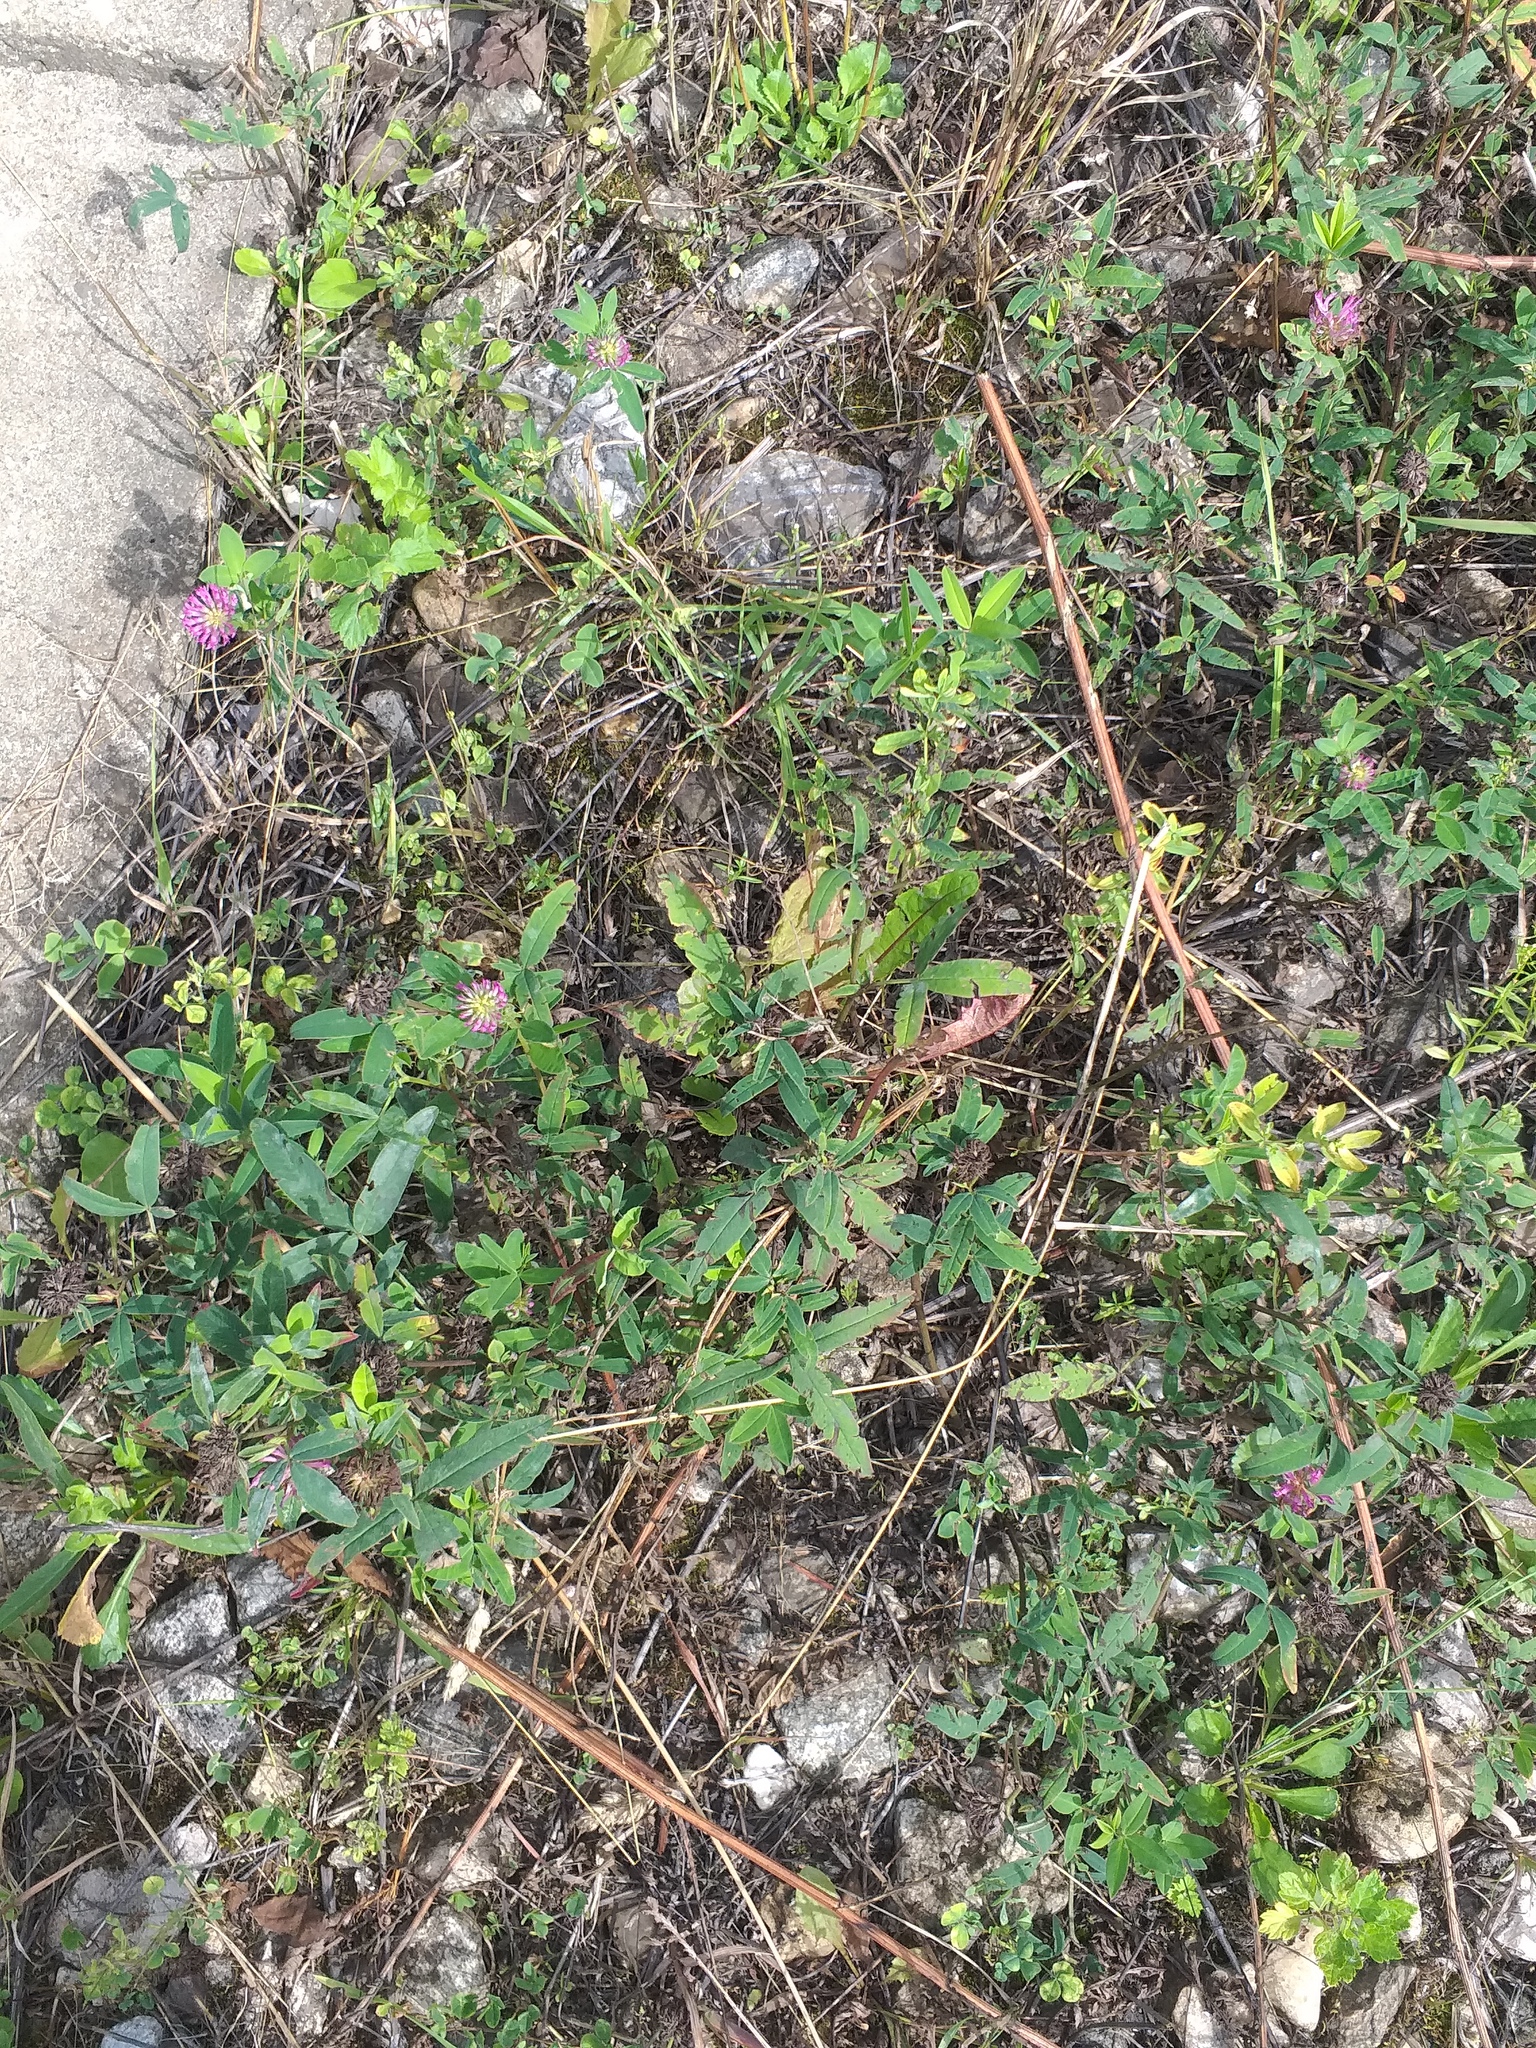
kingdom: Plantae
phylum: Tracheophyta
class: Magnoliopsida
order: Fabales
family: Fabaceae
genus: Trifolium
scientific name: Trifolium medium
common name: Zigzag clover
